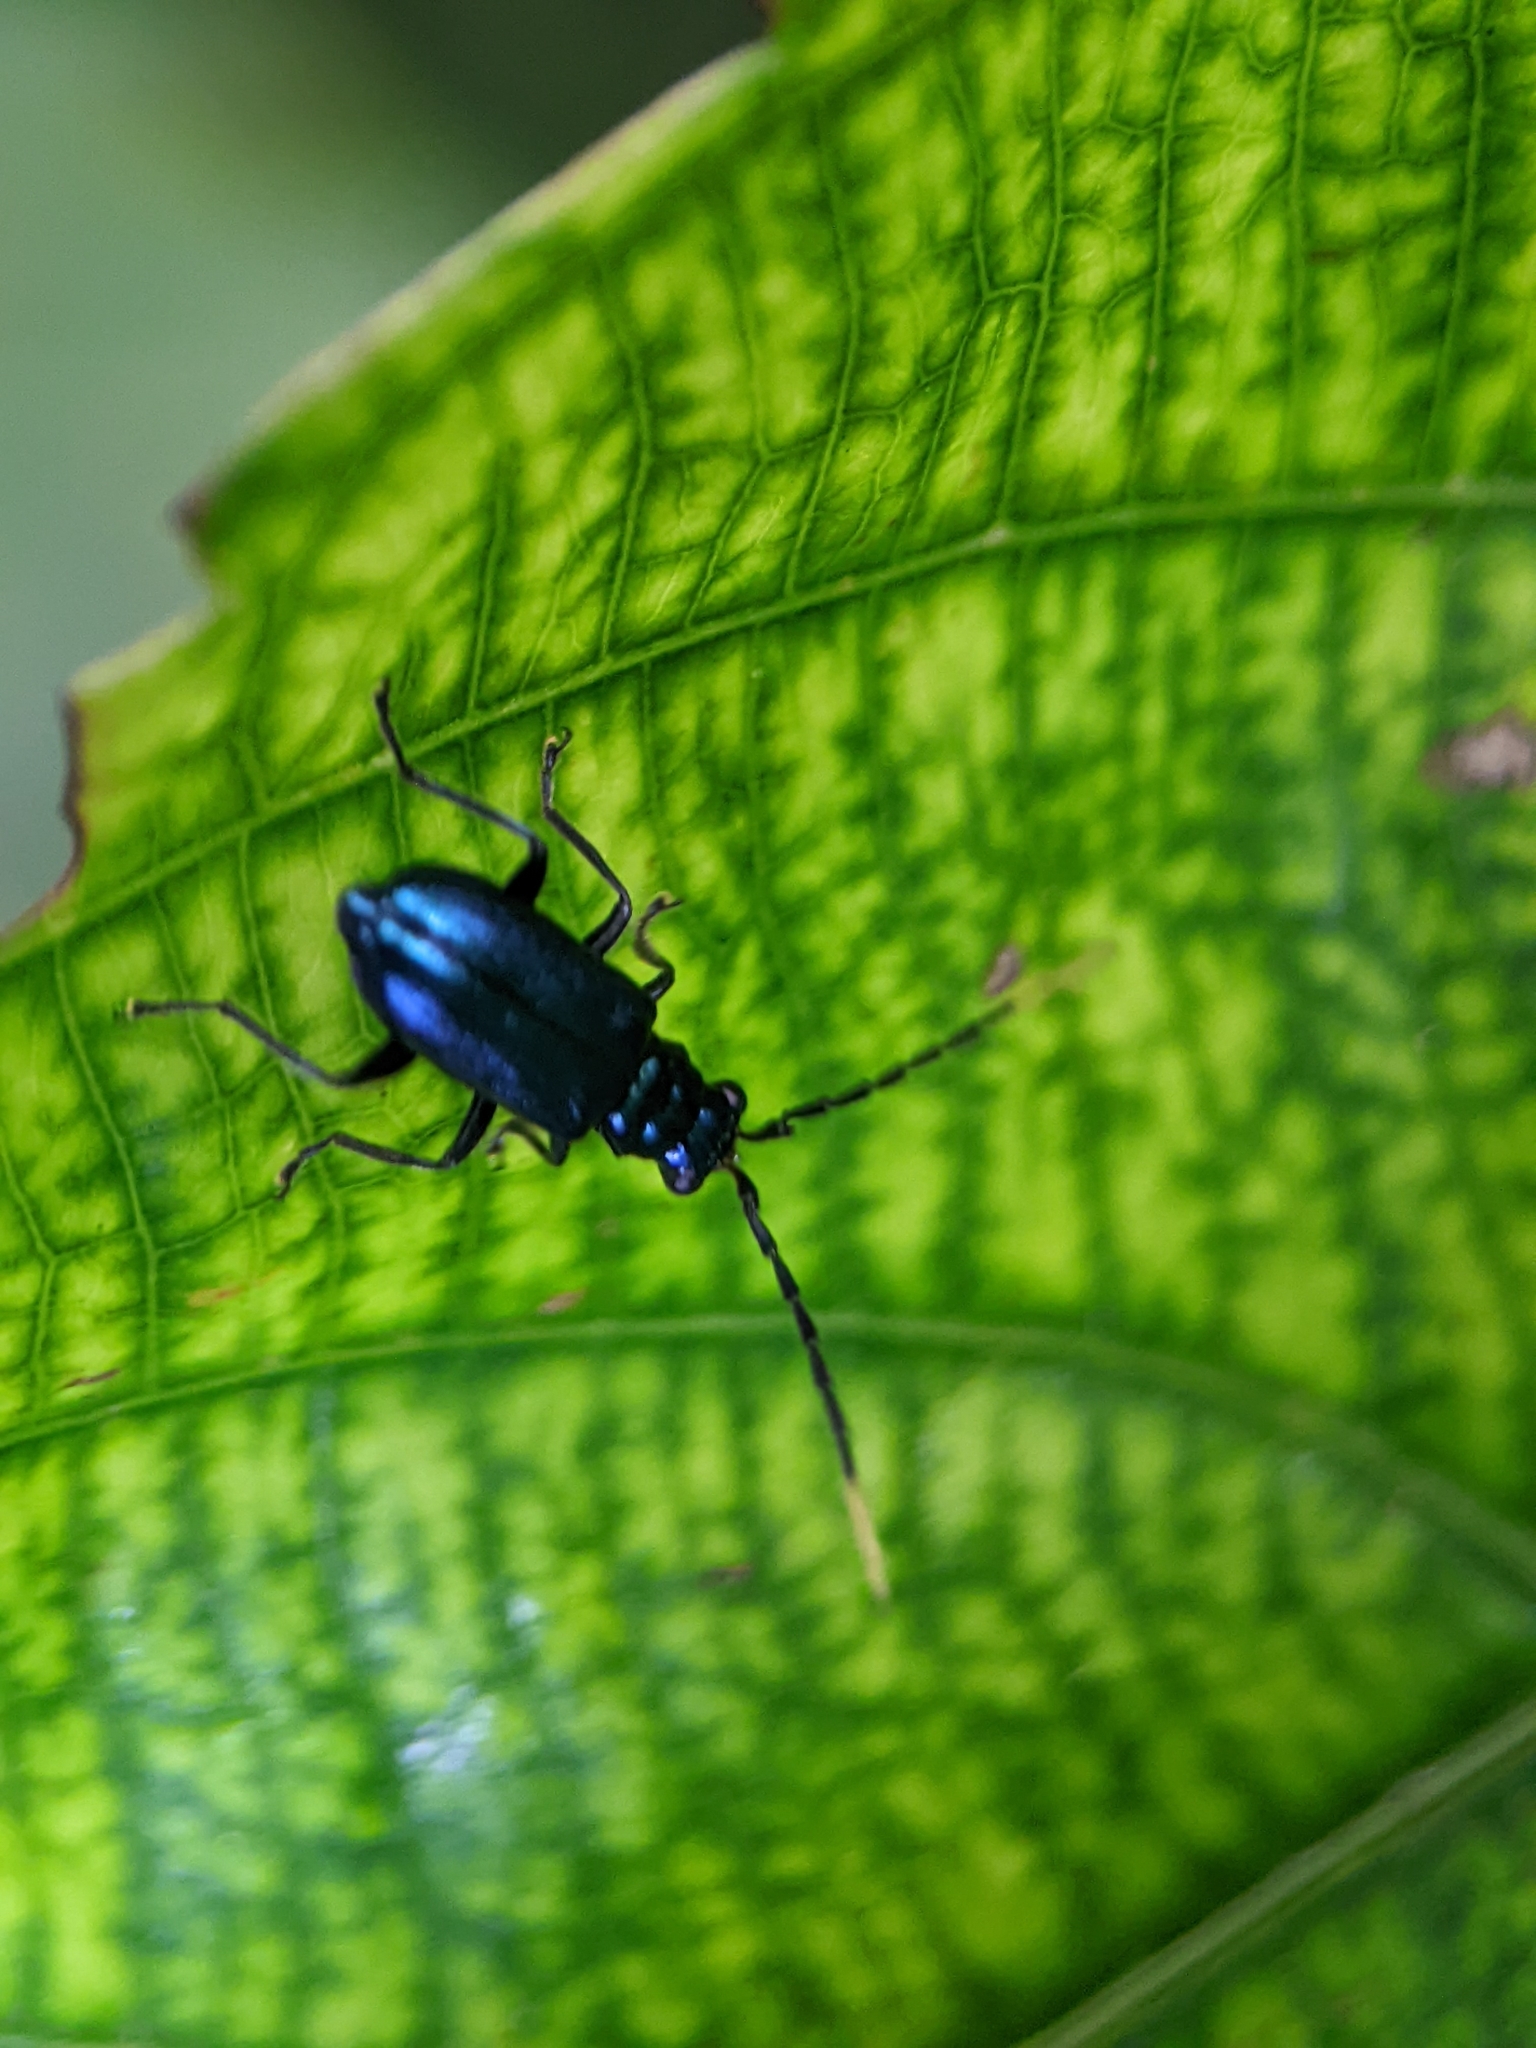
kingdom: Animalia
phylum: Arthropoda
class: Insecta
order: Coleoptera
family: Chrysomelidae
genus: Hoplosaenidea
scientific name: Hoplosaenidea
